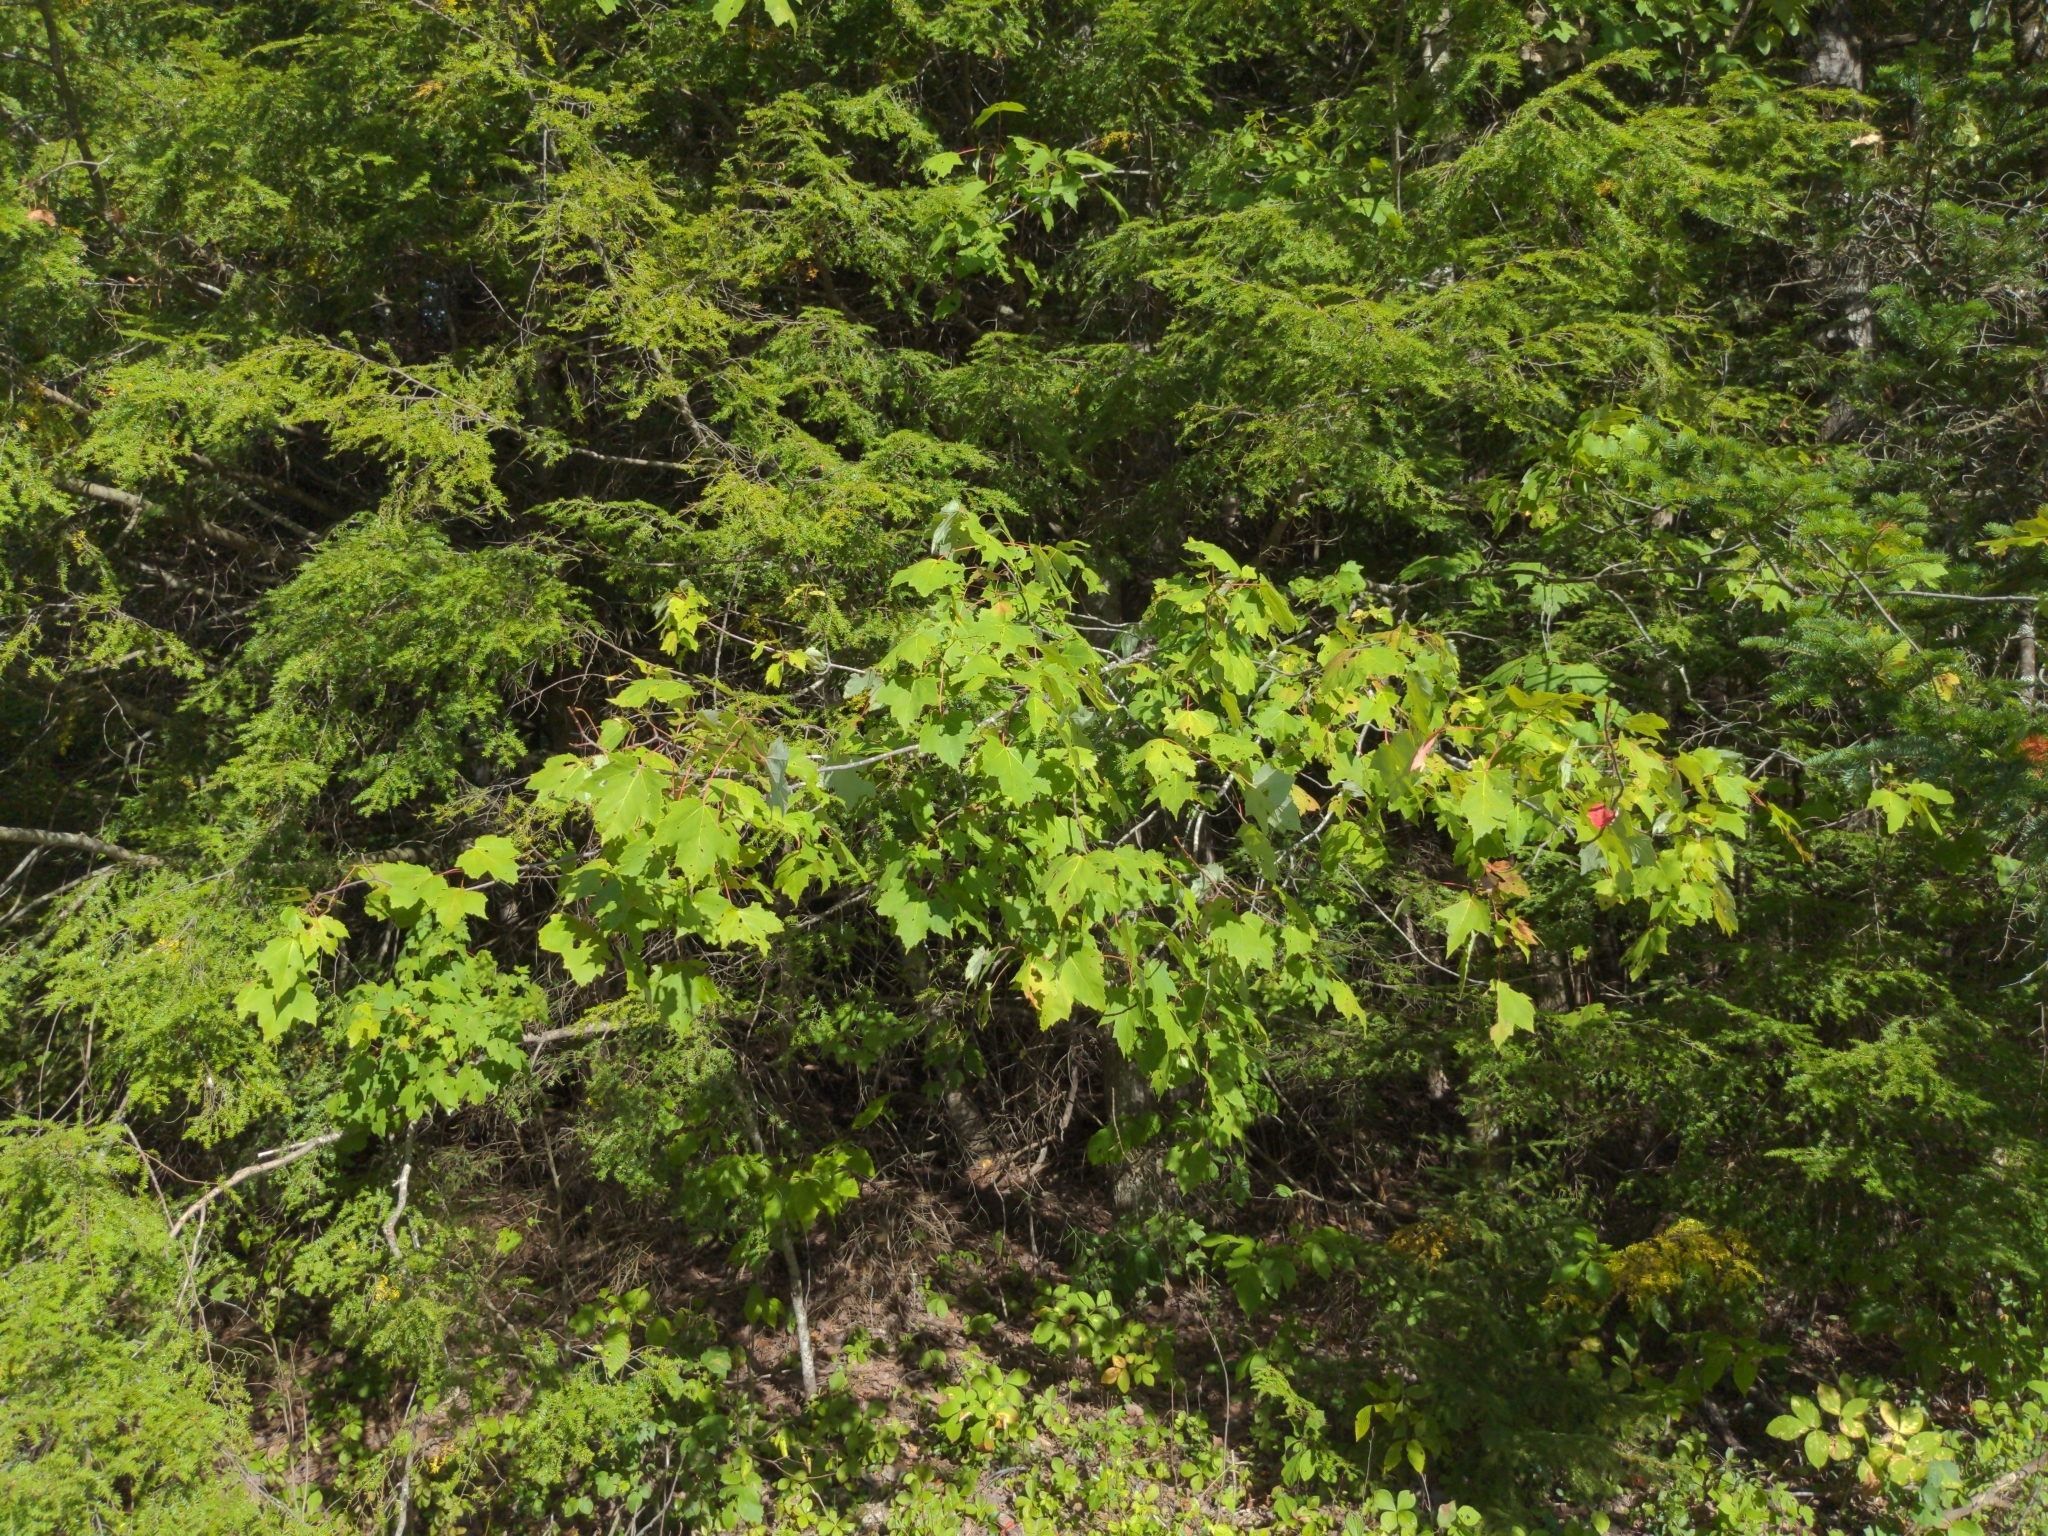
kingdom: Plantae
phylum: Tracheophyta
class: Magnoliopsida
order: Sapindales
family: Sapindaceae
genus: Acer
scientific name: Acer rubrum
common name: Red maple
